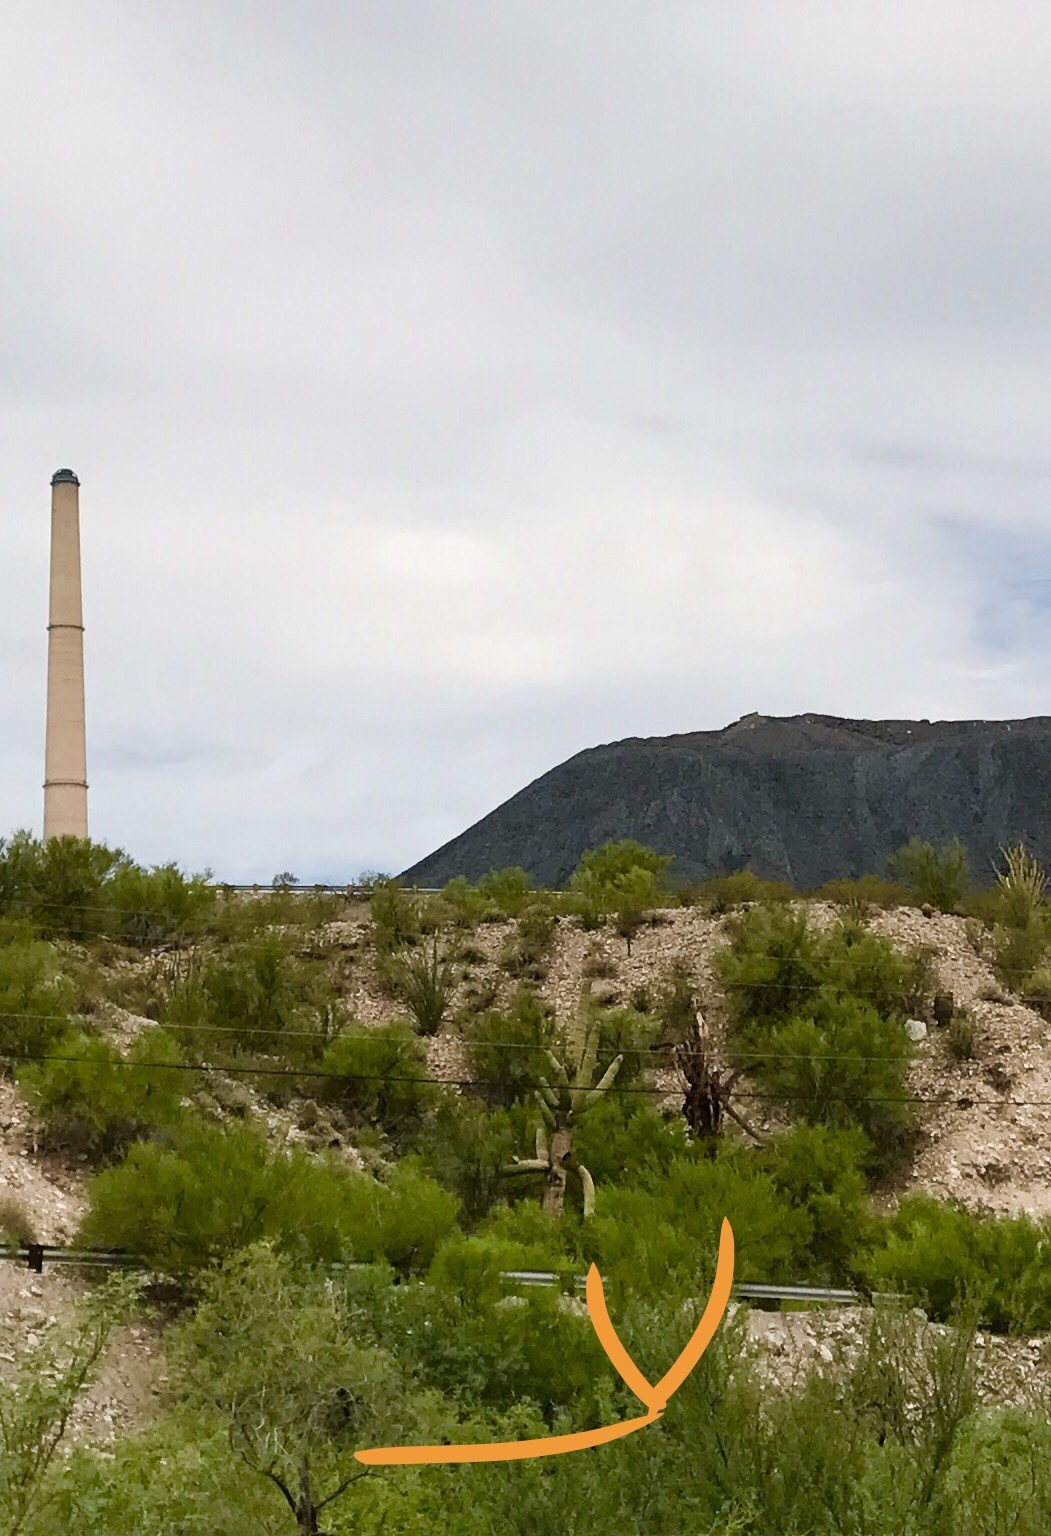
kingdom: Plantae
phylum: Tracheophyta
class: Magnoliopsida
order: Caryophyllales
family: Cactaceae
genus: Carnegiea
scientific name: Carnegiea gigantea
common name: Saguaro
